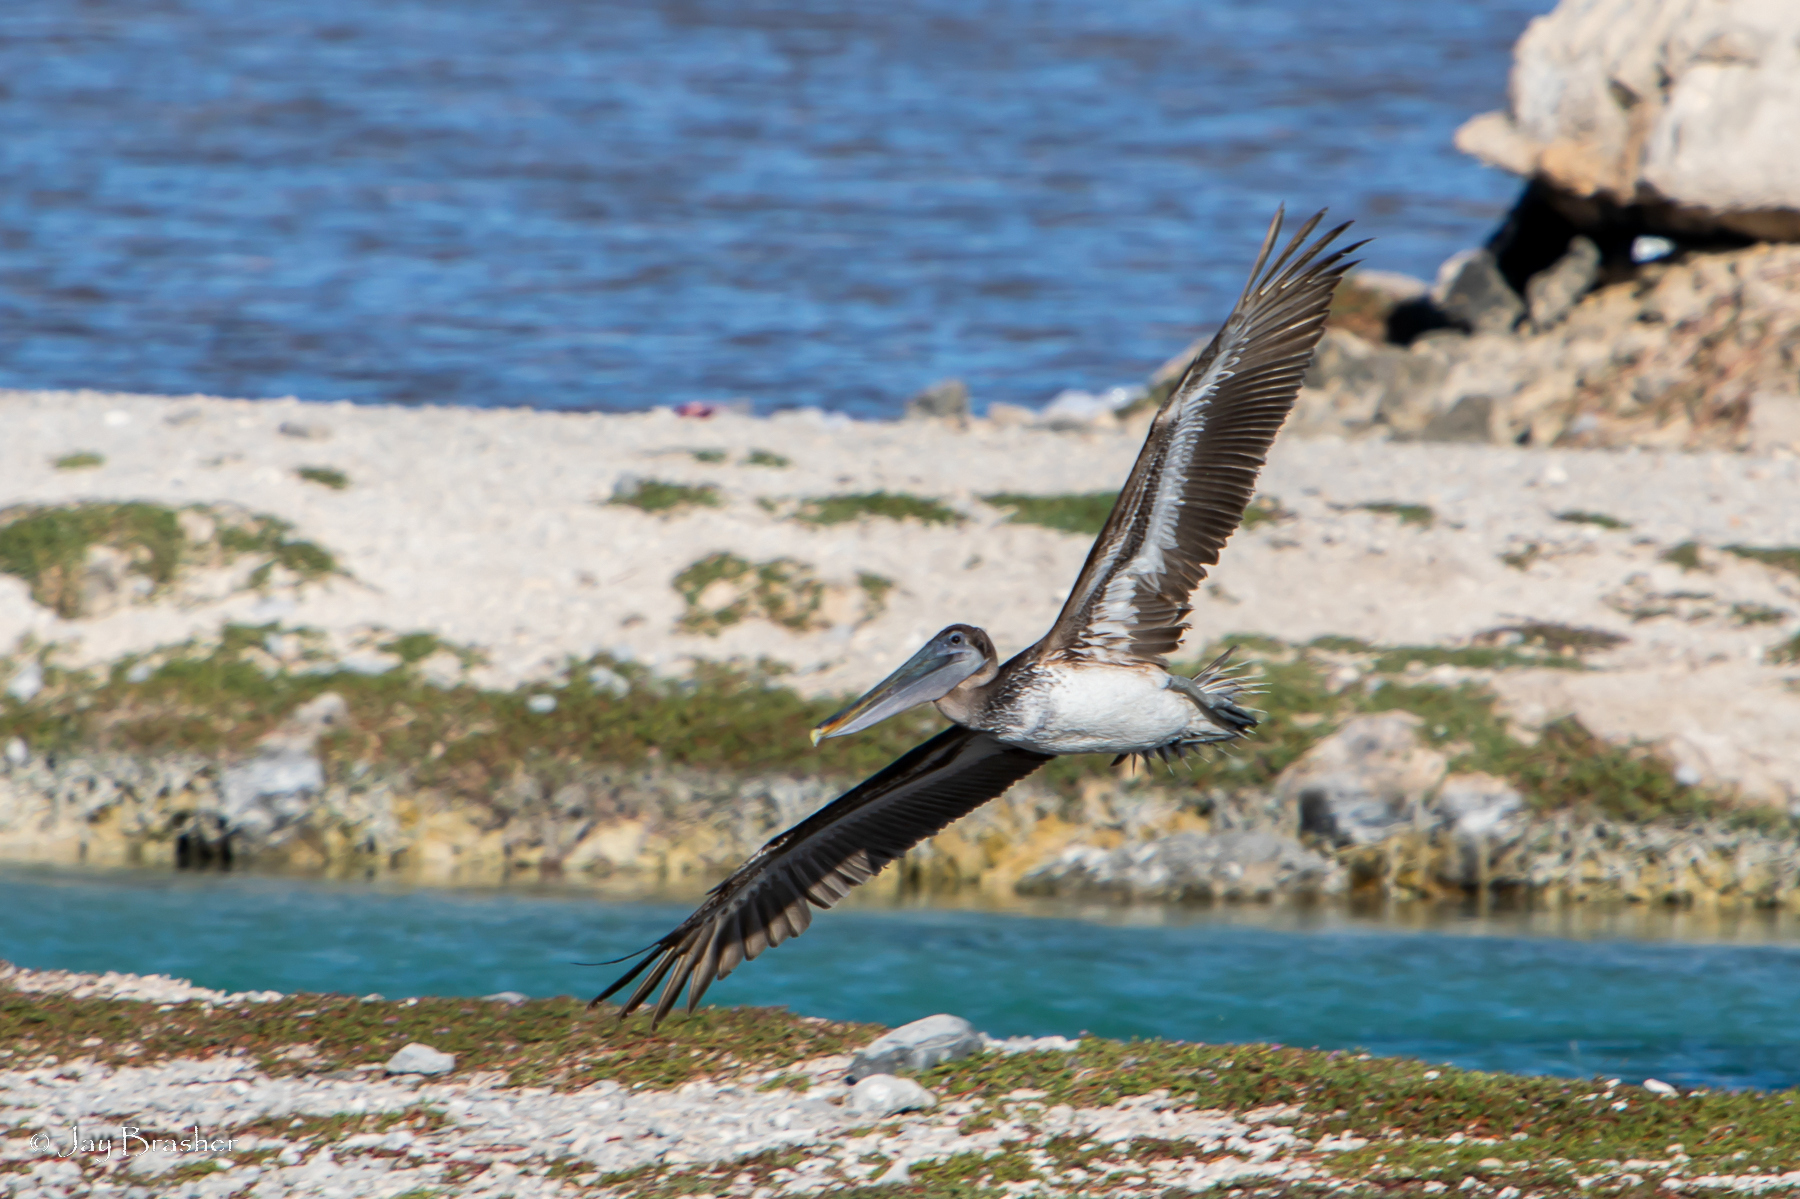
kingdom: Animalia
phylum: Chordata
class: Aves
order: Pelecaniformes
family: Pelecanidae
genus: Pelecanus
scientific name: Pelecanus occidentalis
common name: Brown pelican
